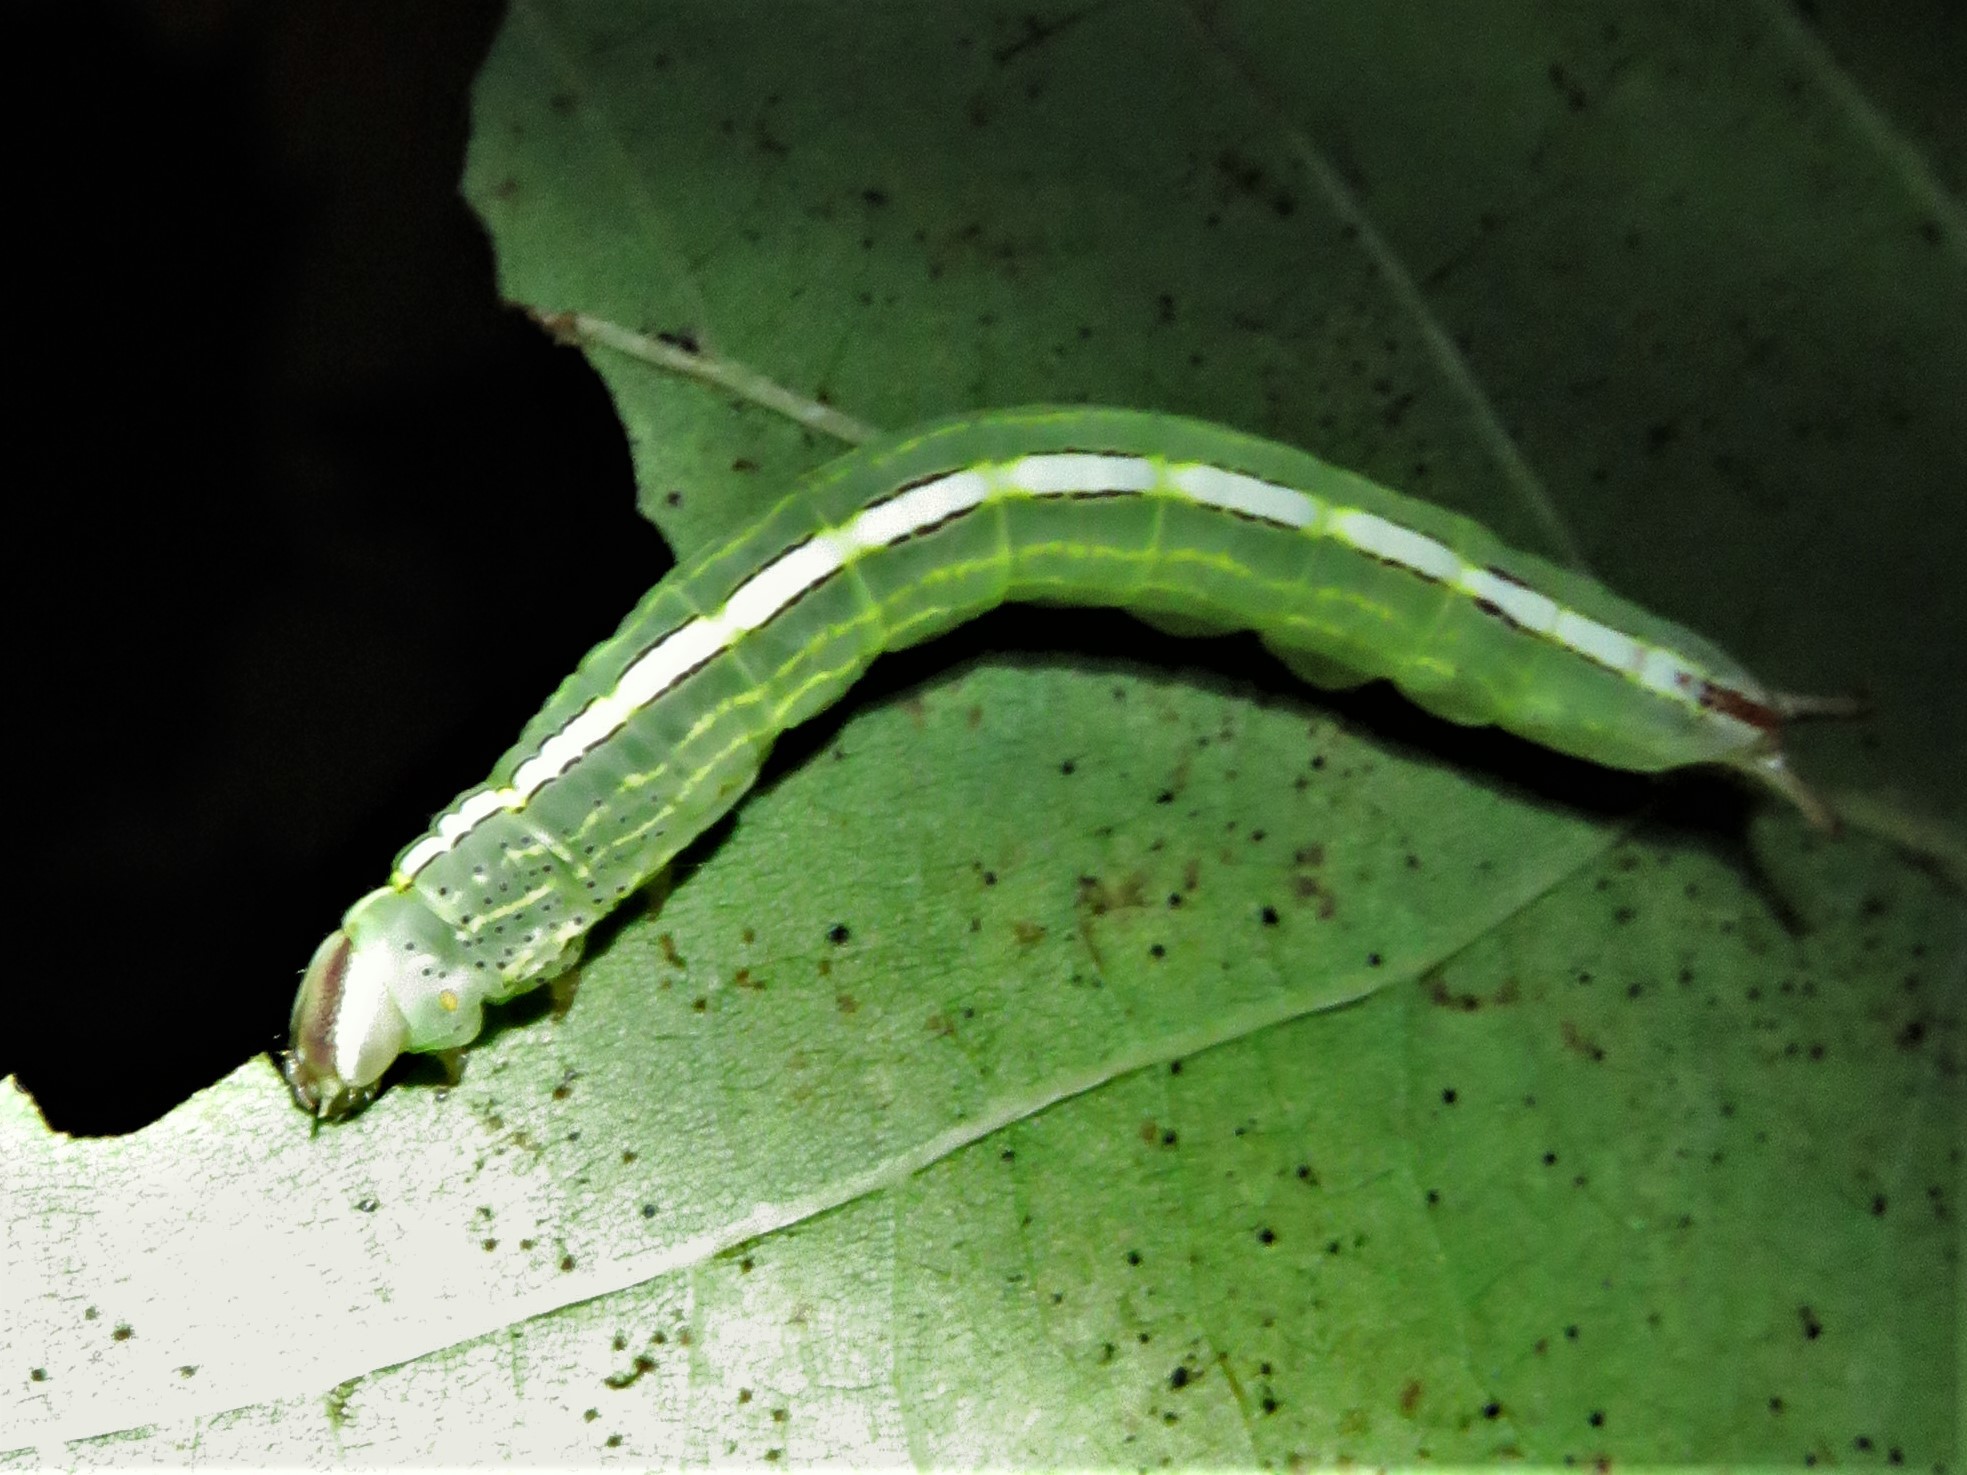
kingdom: Animalia
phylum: Arthropoda
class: Insecta
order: Lepidoptera
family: Notodontidae
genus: Misogada
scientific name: Misogada unicolor
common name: Drab prominent
